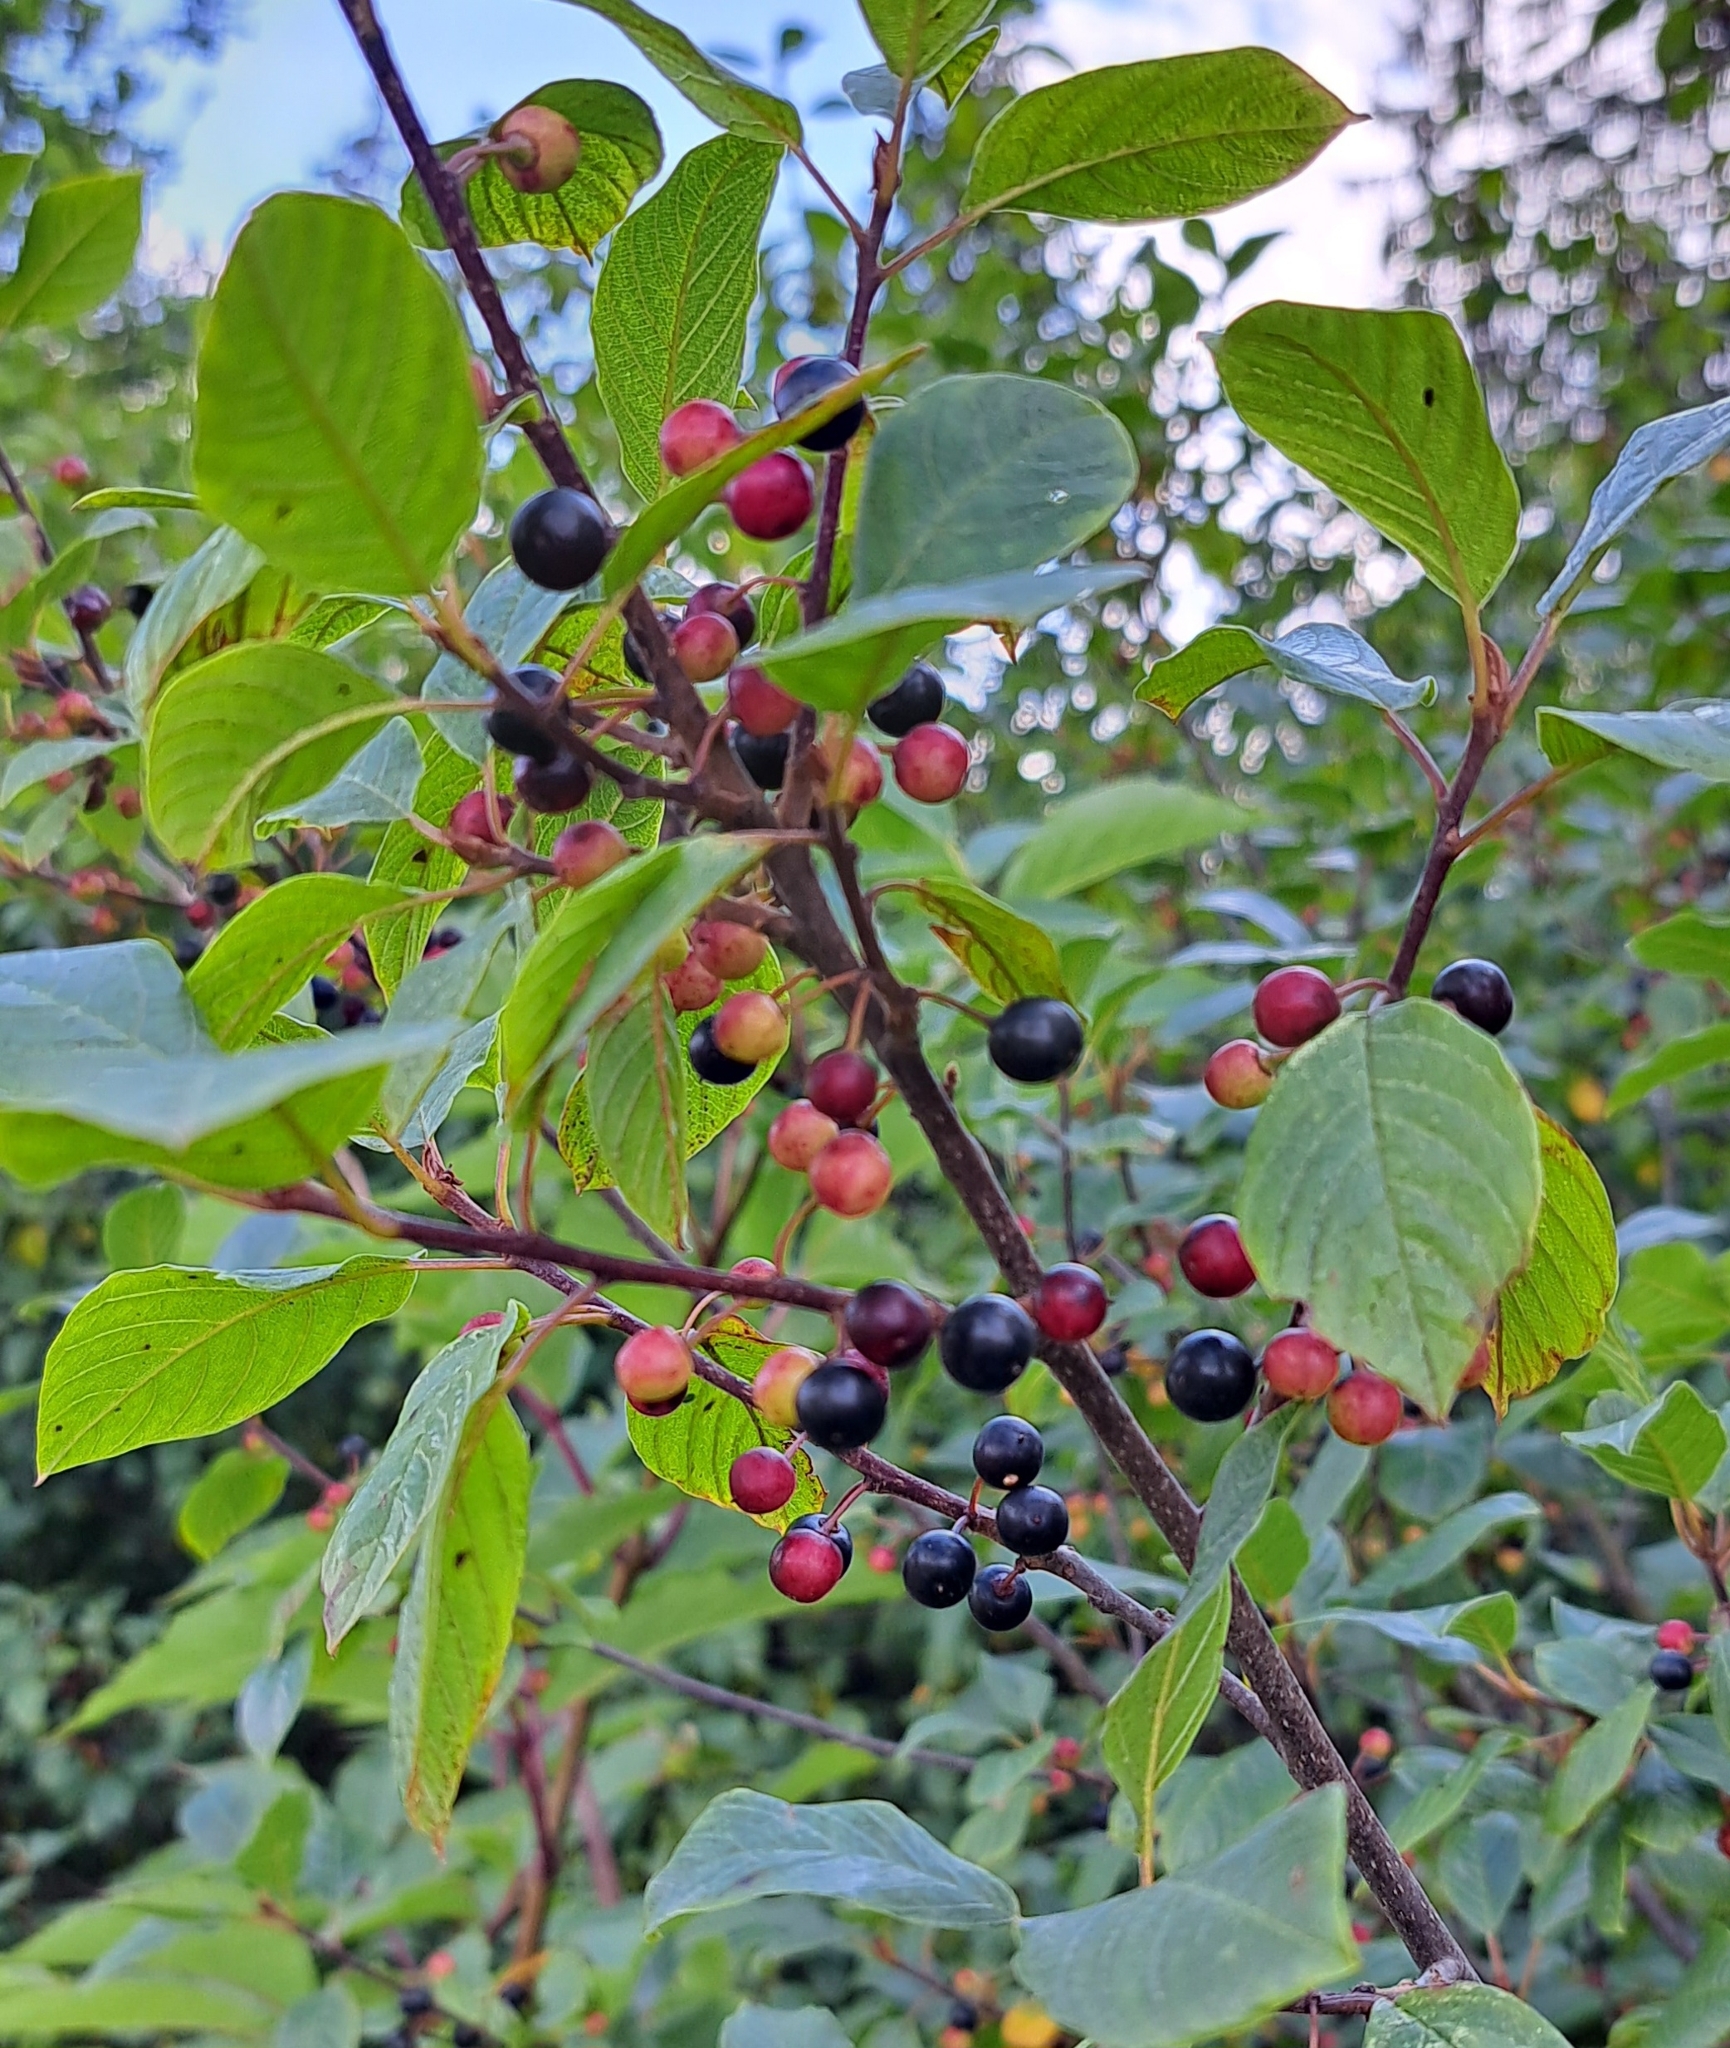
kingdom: Plantae
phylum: Tracheophyta
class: Magnoliopsida
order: Rosales
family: Rhamnaceae
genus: Frangula
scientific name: Frangula alnus
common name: Alder buckthorn
